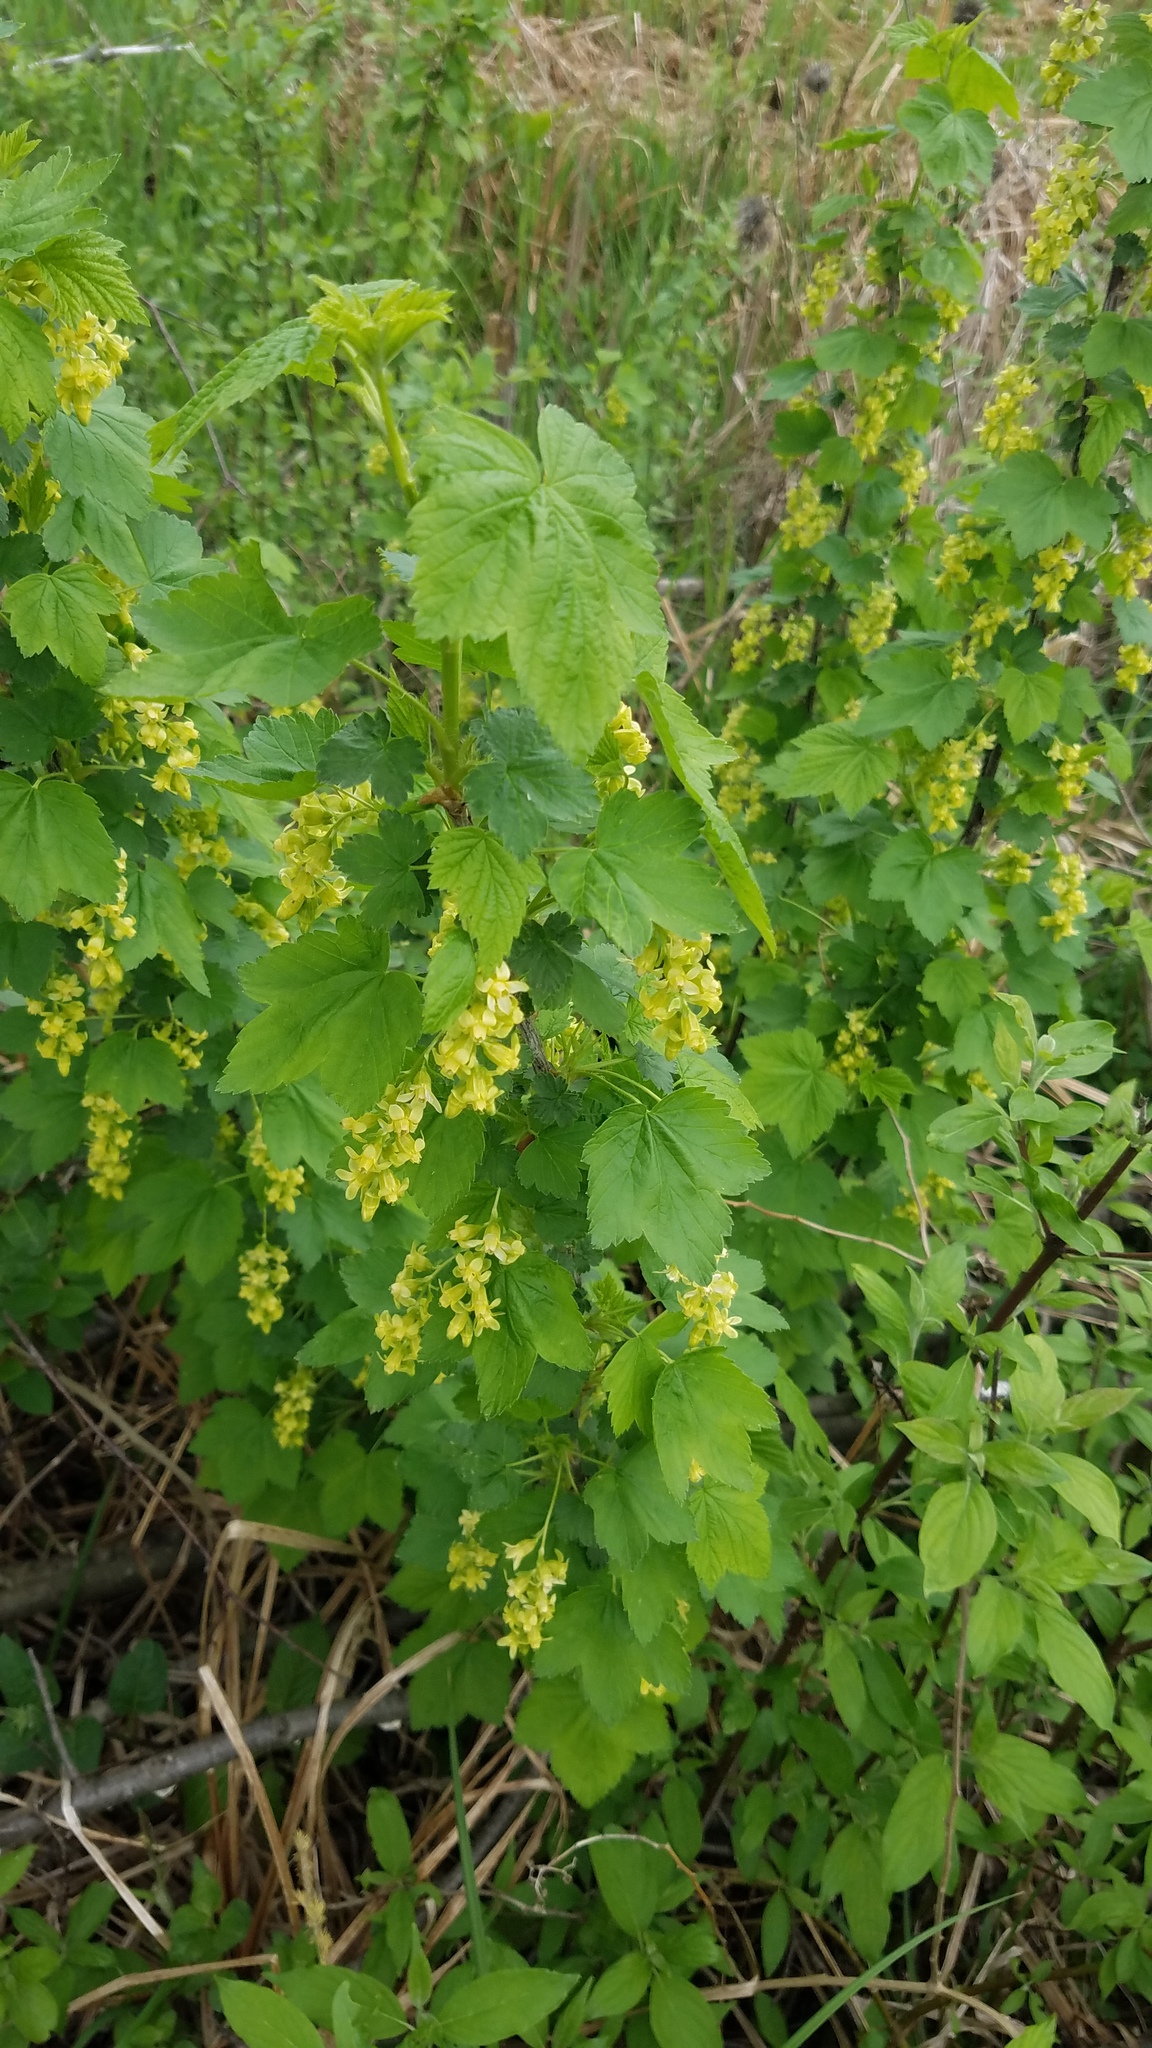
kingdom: Plantae
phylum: Tracheophyta
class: Magnoliopsida
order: Saxifragales
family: Grossulariaceae
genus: Ribes
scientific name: Ribes americanum
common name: American black currant
